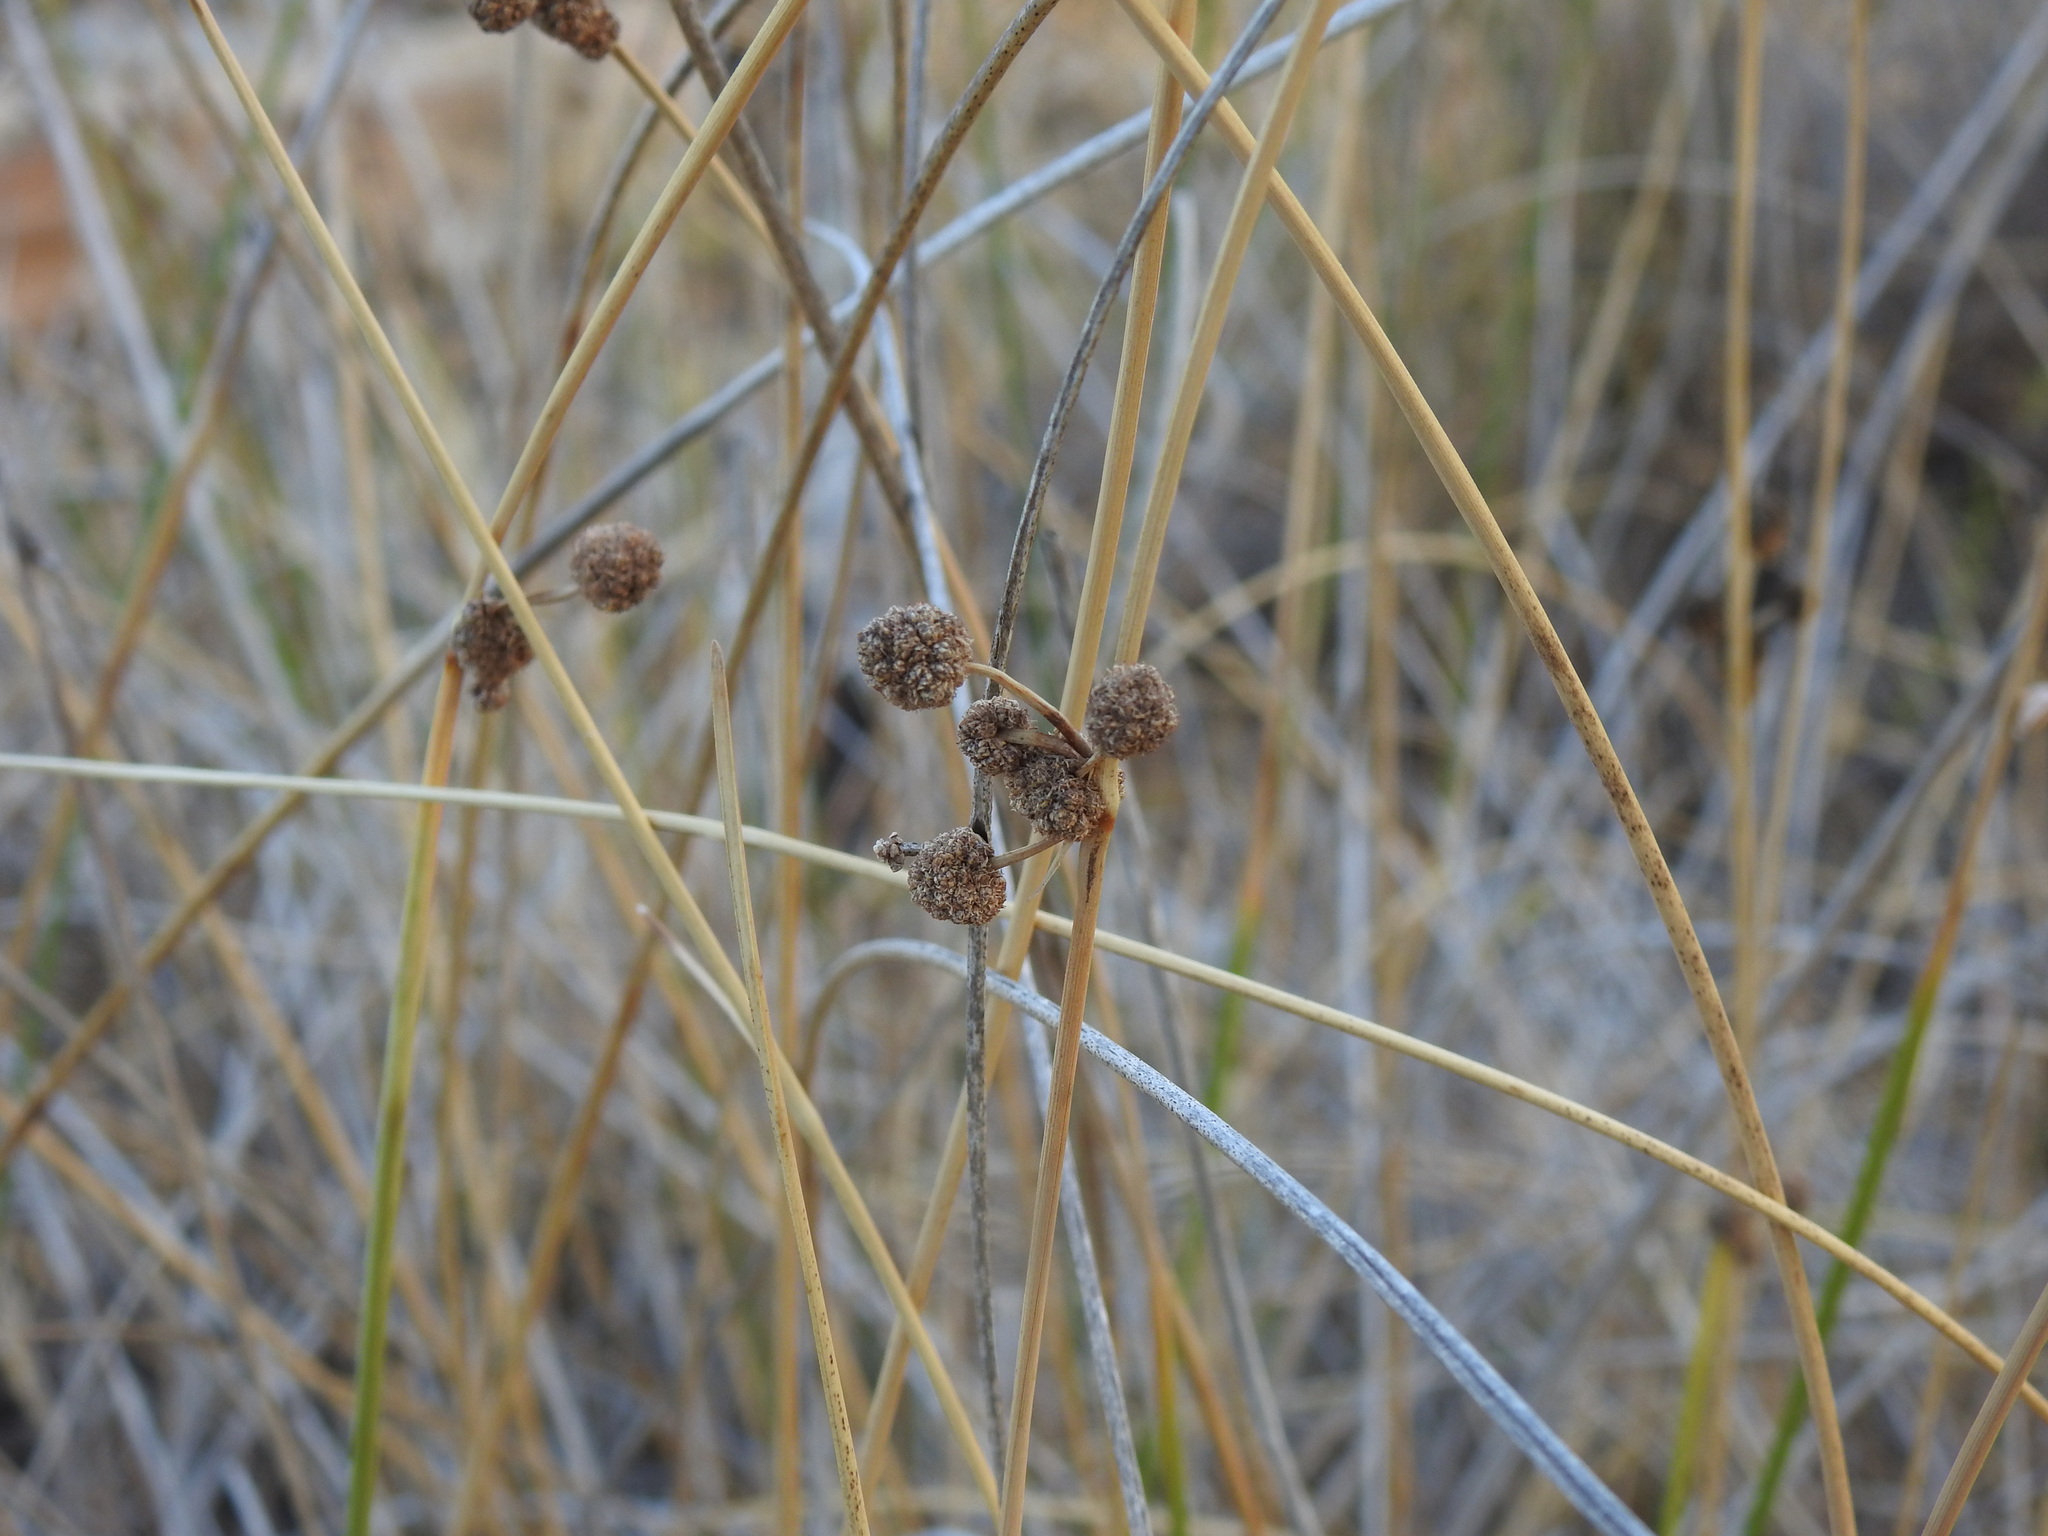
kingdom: Plantae
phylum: Tracheophyta
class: Liliopsida
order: Poales
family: Cyperaceae
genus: Scirpoides
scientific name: Scirpoides holoschoenus
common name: Round-headed club-rush
